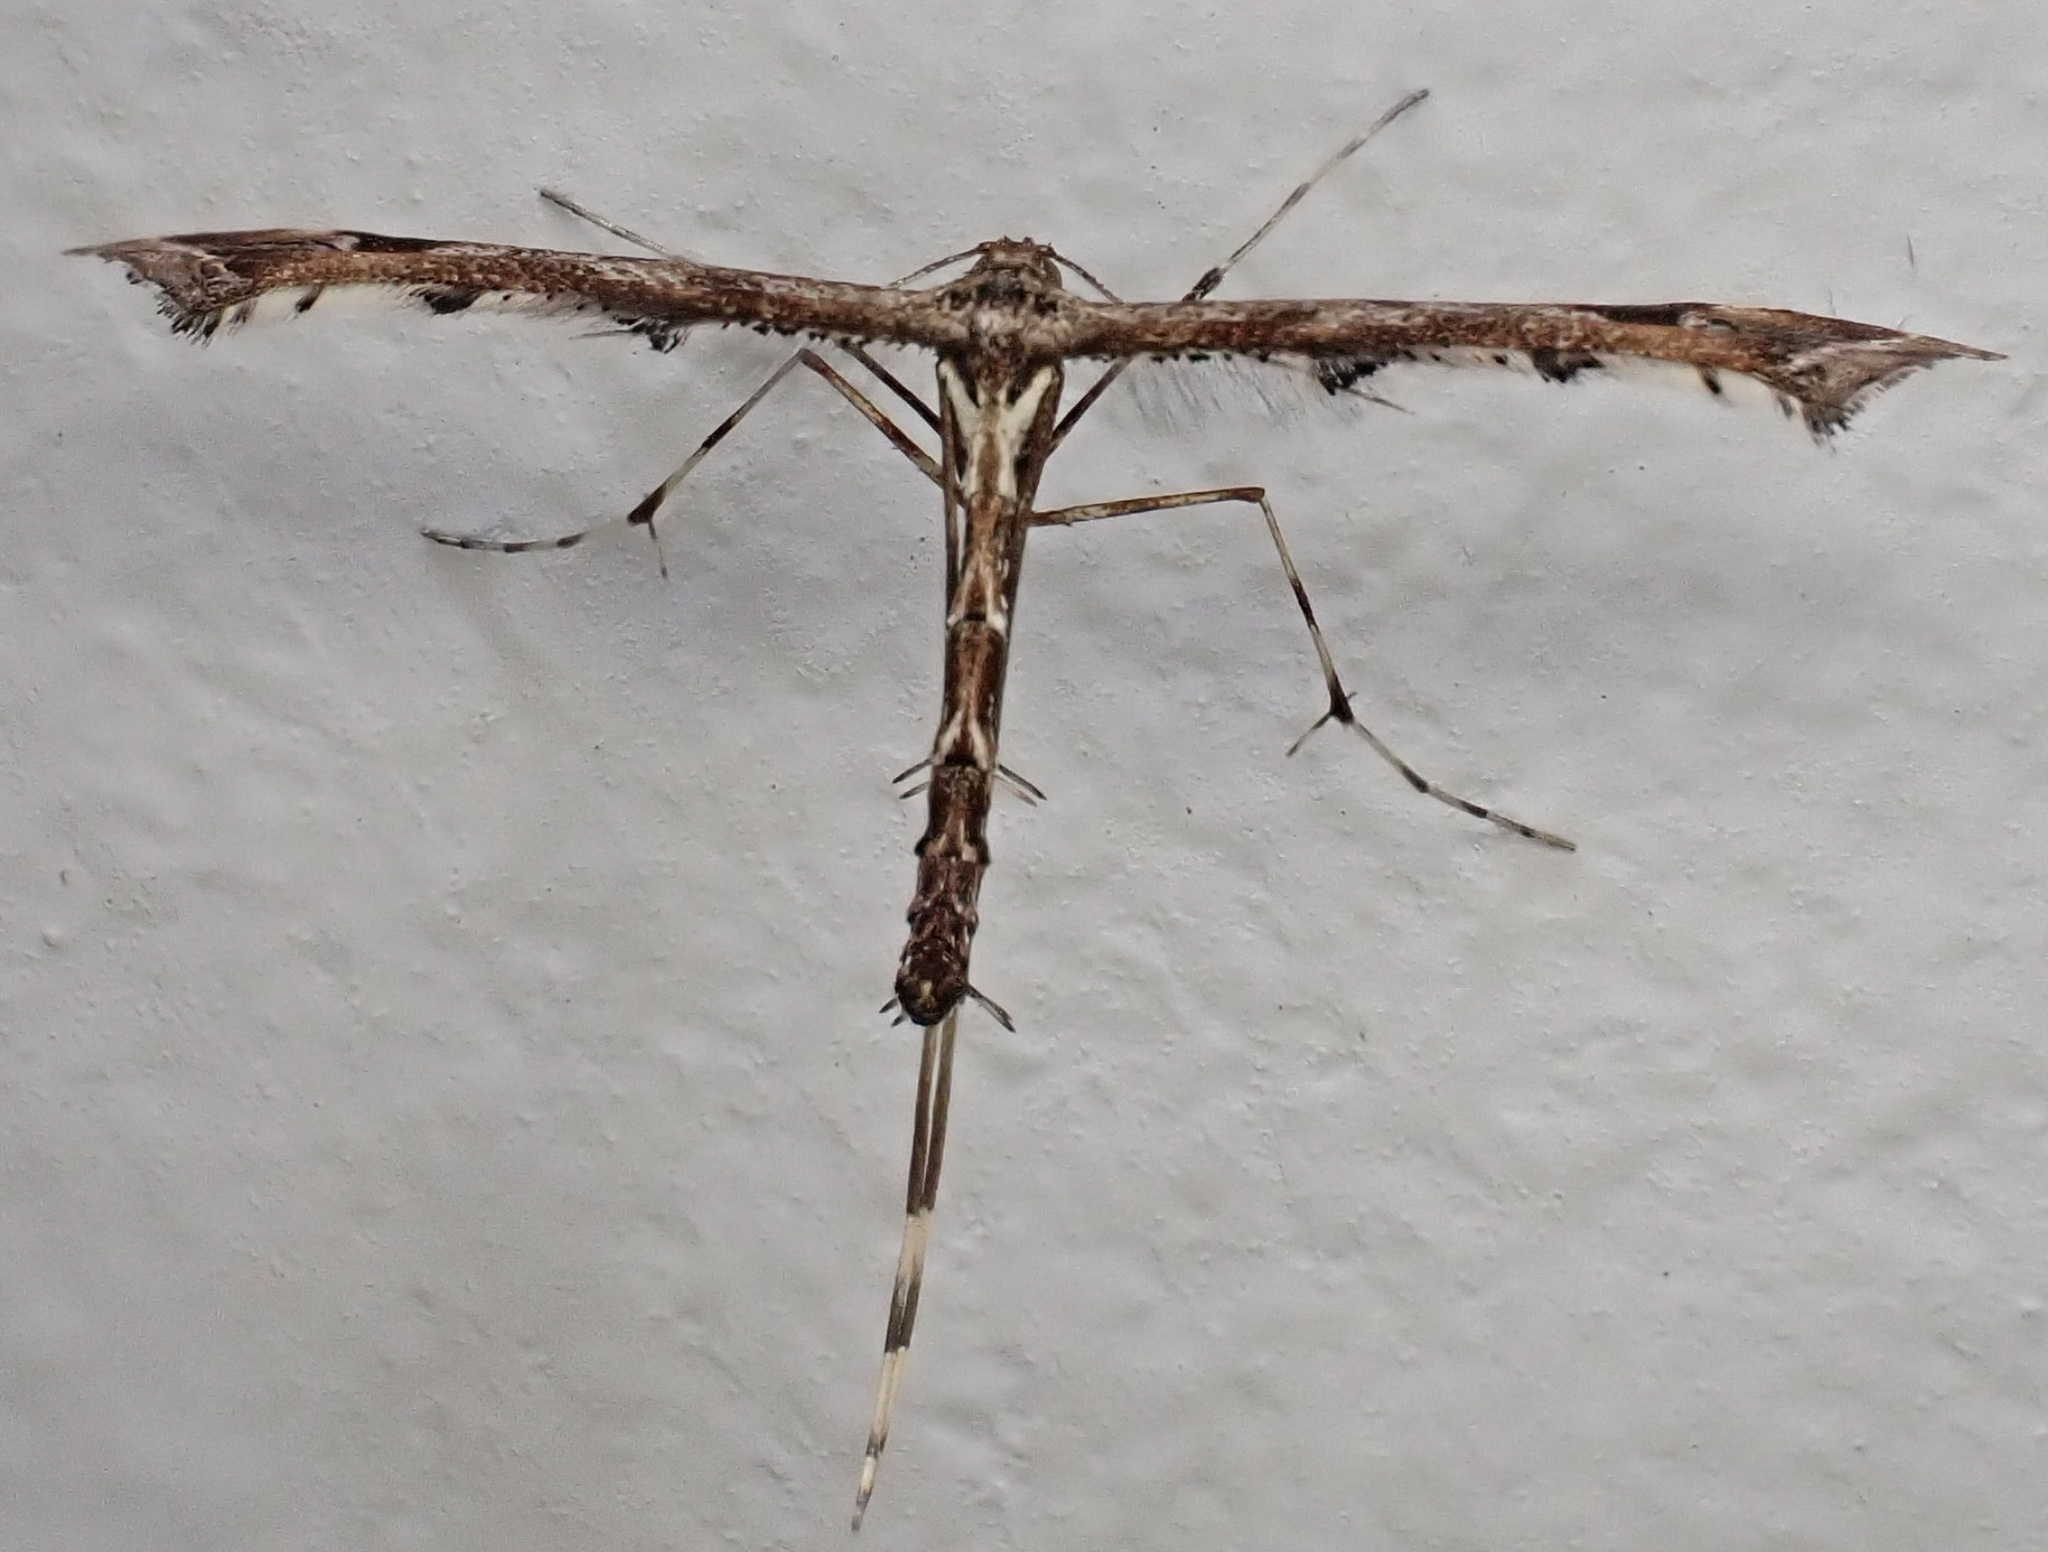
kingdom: Animalia
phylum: Arthropoda
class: Insecta
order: Lepidoptera
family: Pterophoridae
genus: Amblyptilia
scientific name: Amblyptilia acanthadactyla
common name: Beautiful plume
